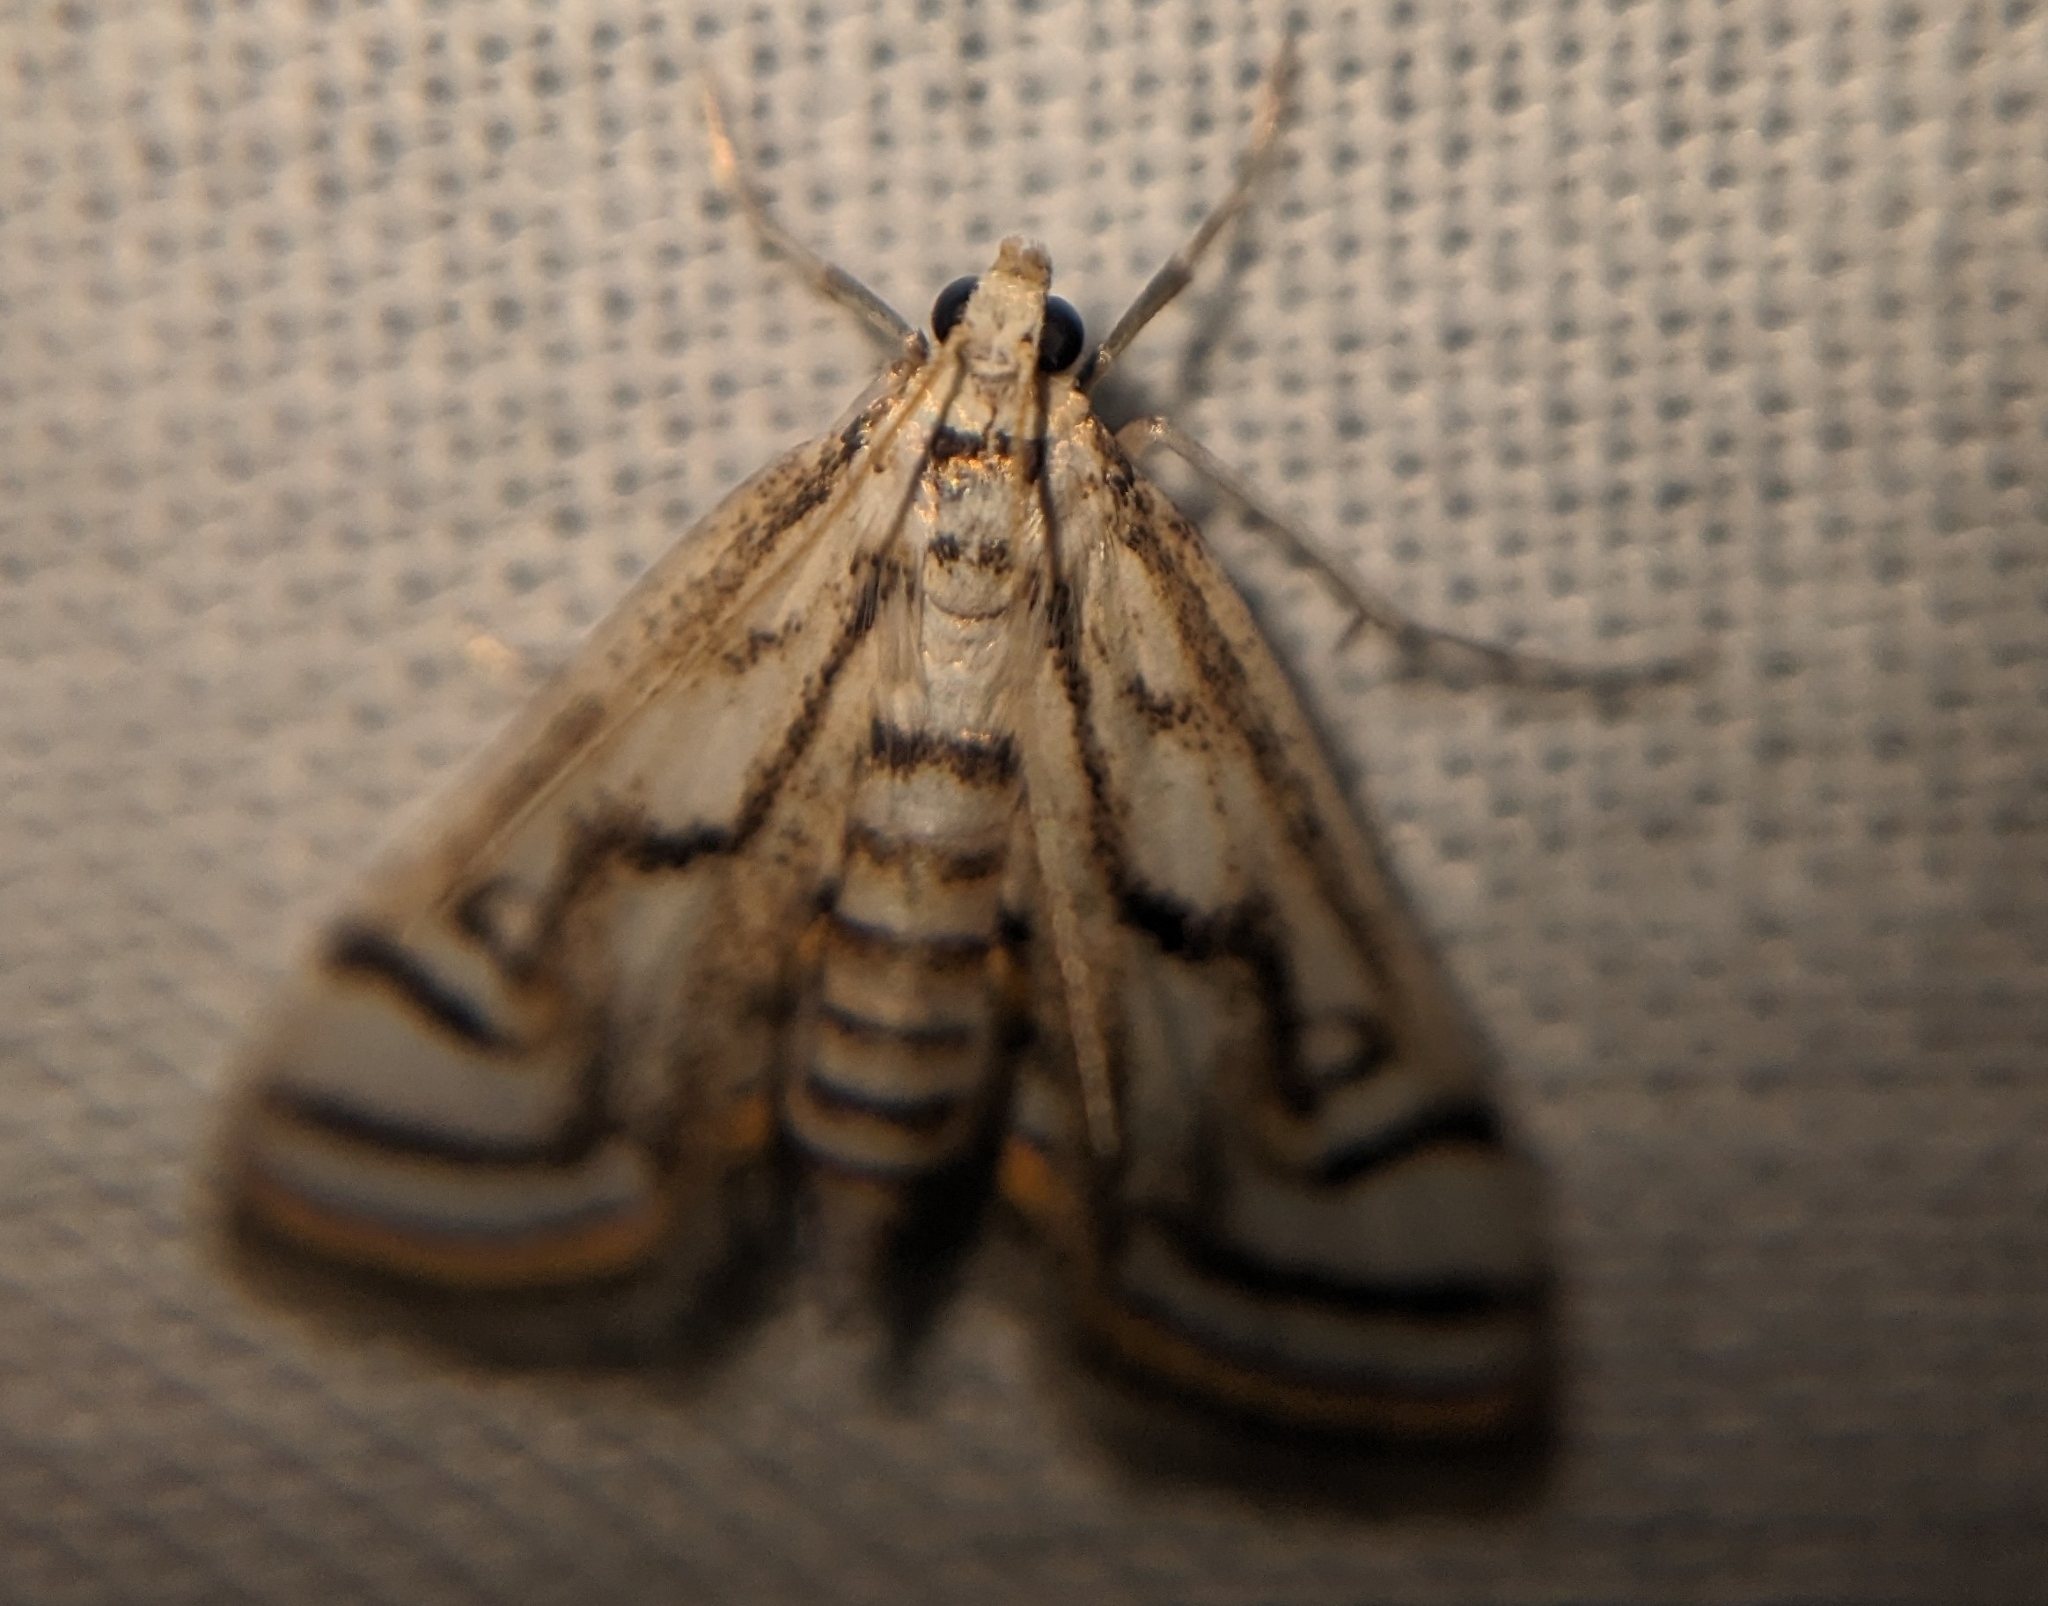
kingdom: Animalia
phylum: Arthropoda
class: Insecta
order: Lepidoptera
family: Crambidae
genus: Parapoynx
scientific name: Parapoynx badiusalis
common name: Chestnut-marked pondweed moth
